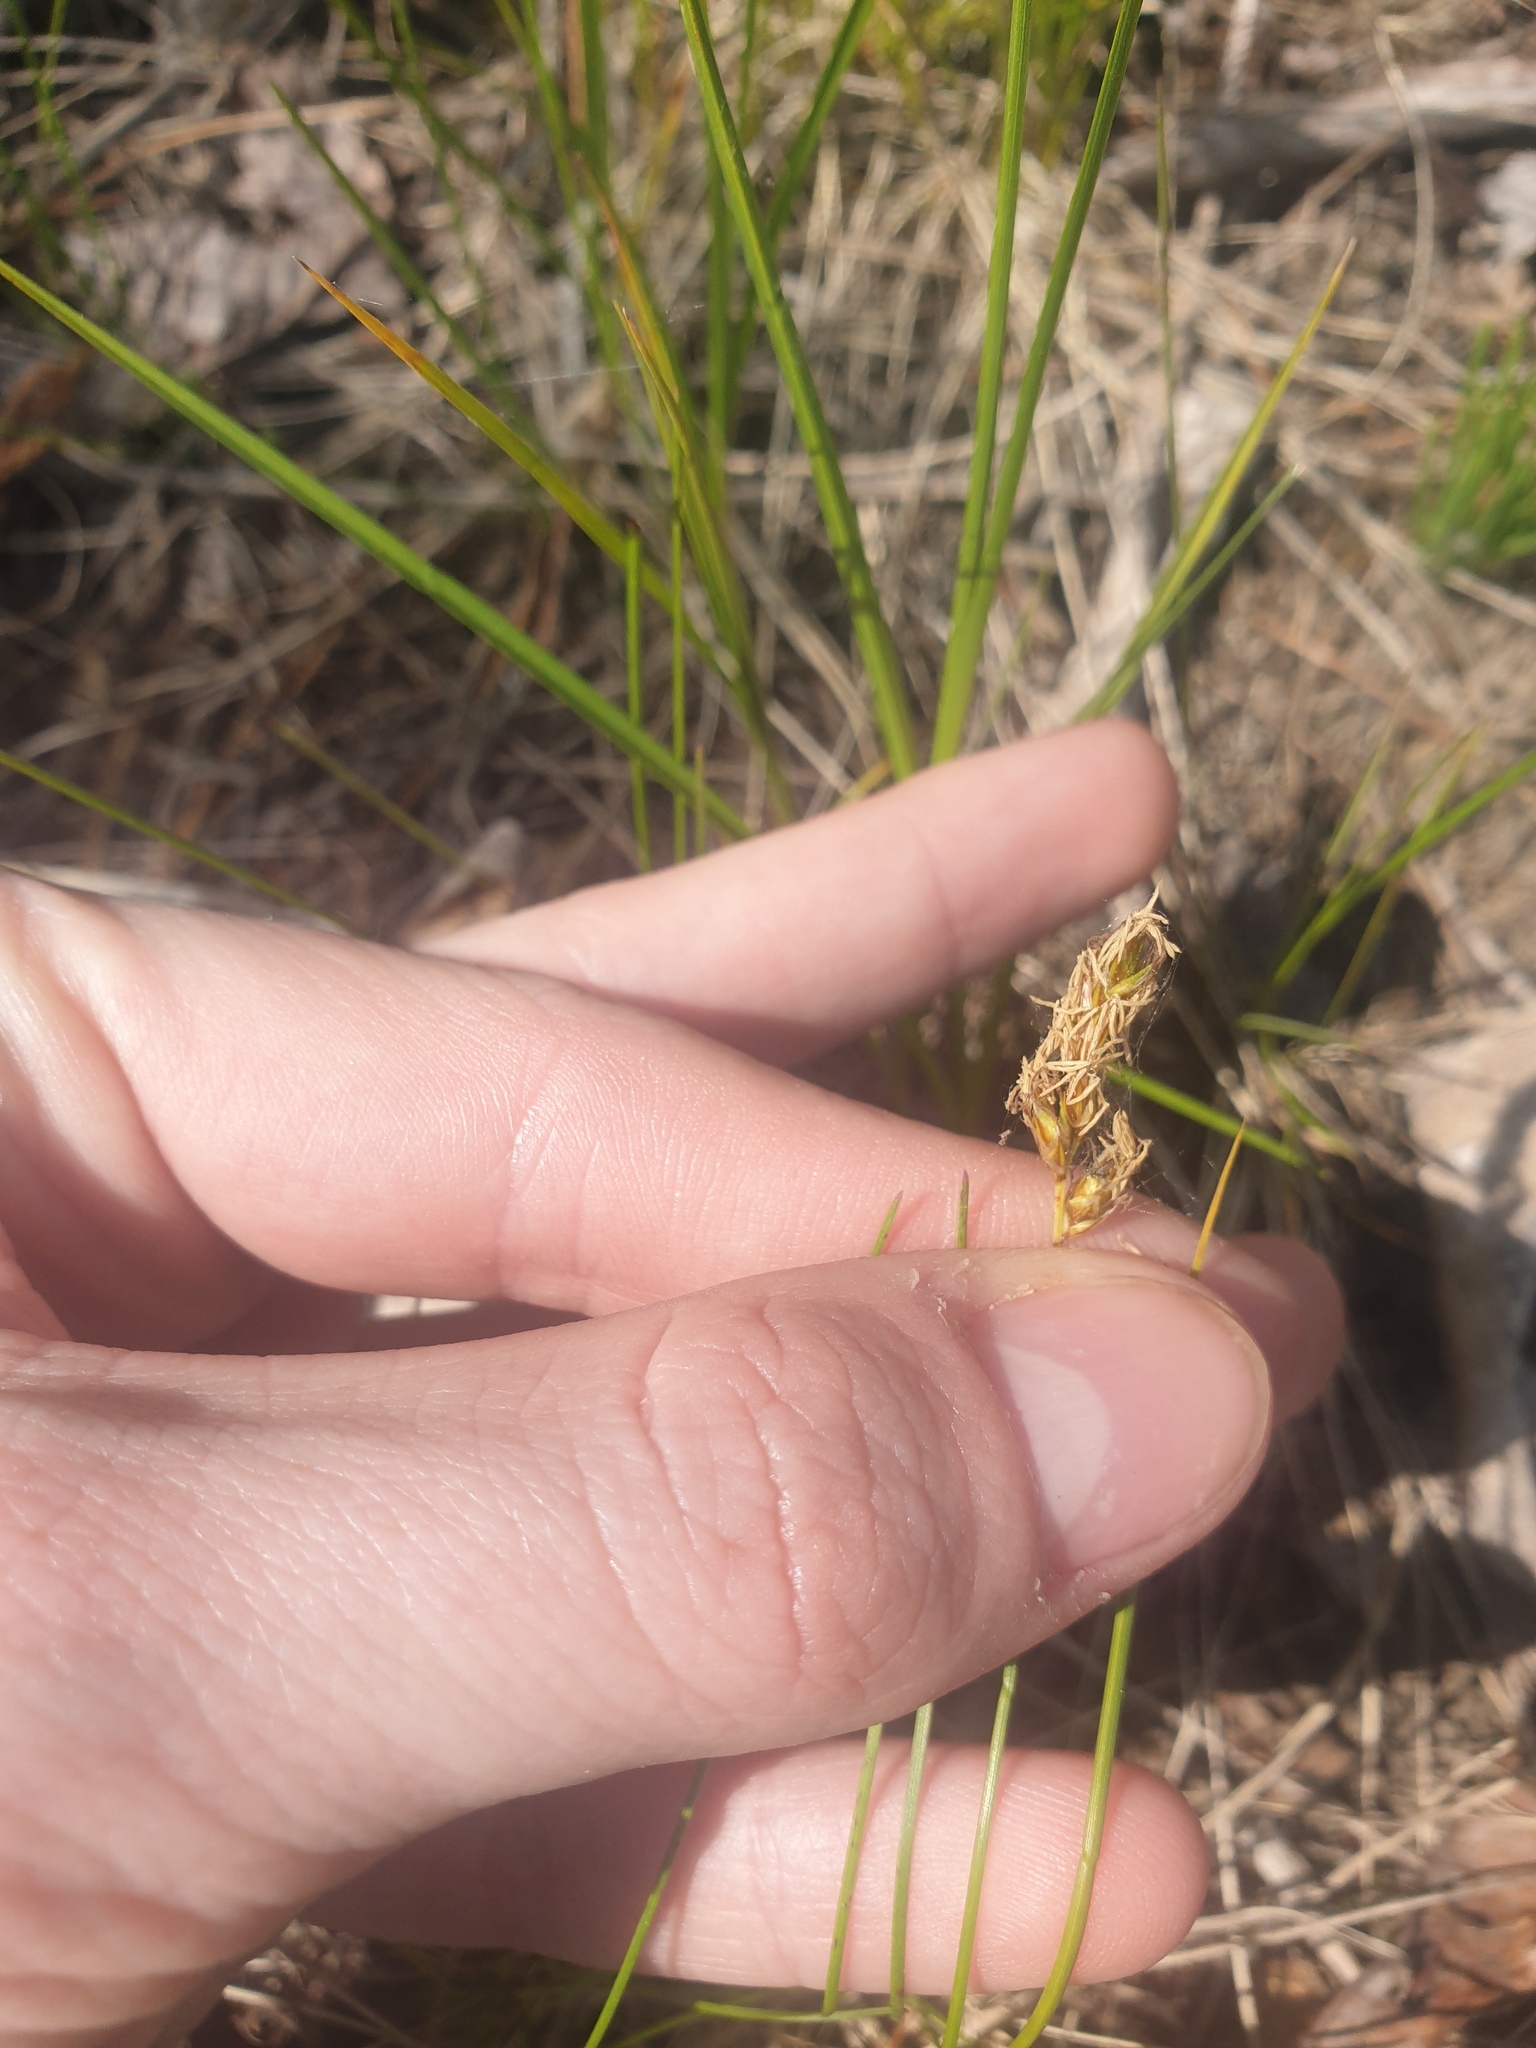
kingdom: Plantae
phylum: Tracheophyta
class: Liliopsida
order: Poales
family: Cyperaceae
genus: Carex
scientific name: Carex siccata
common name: Dry sedge
